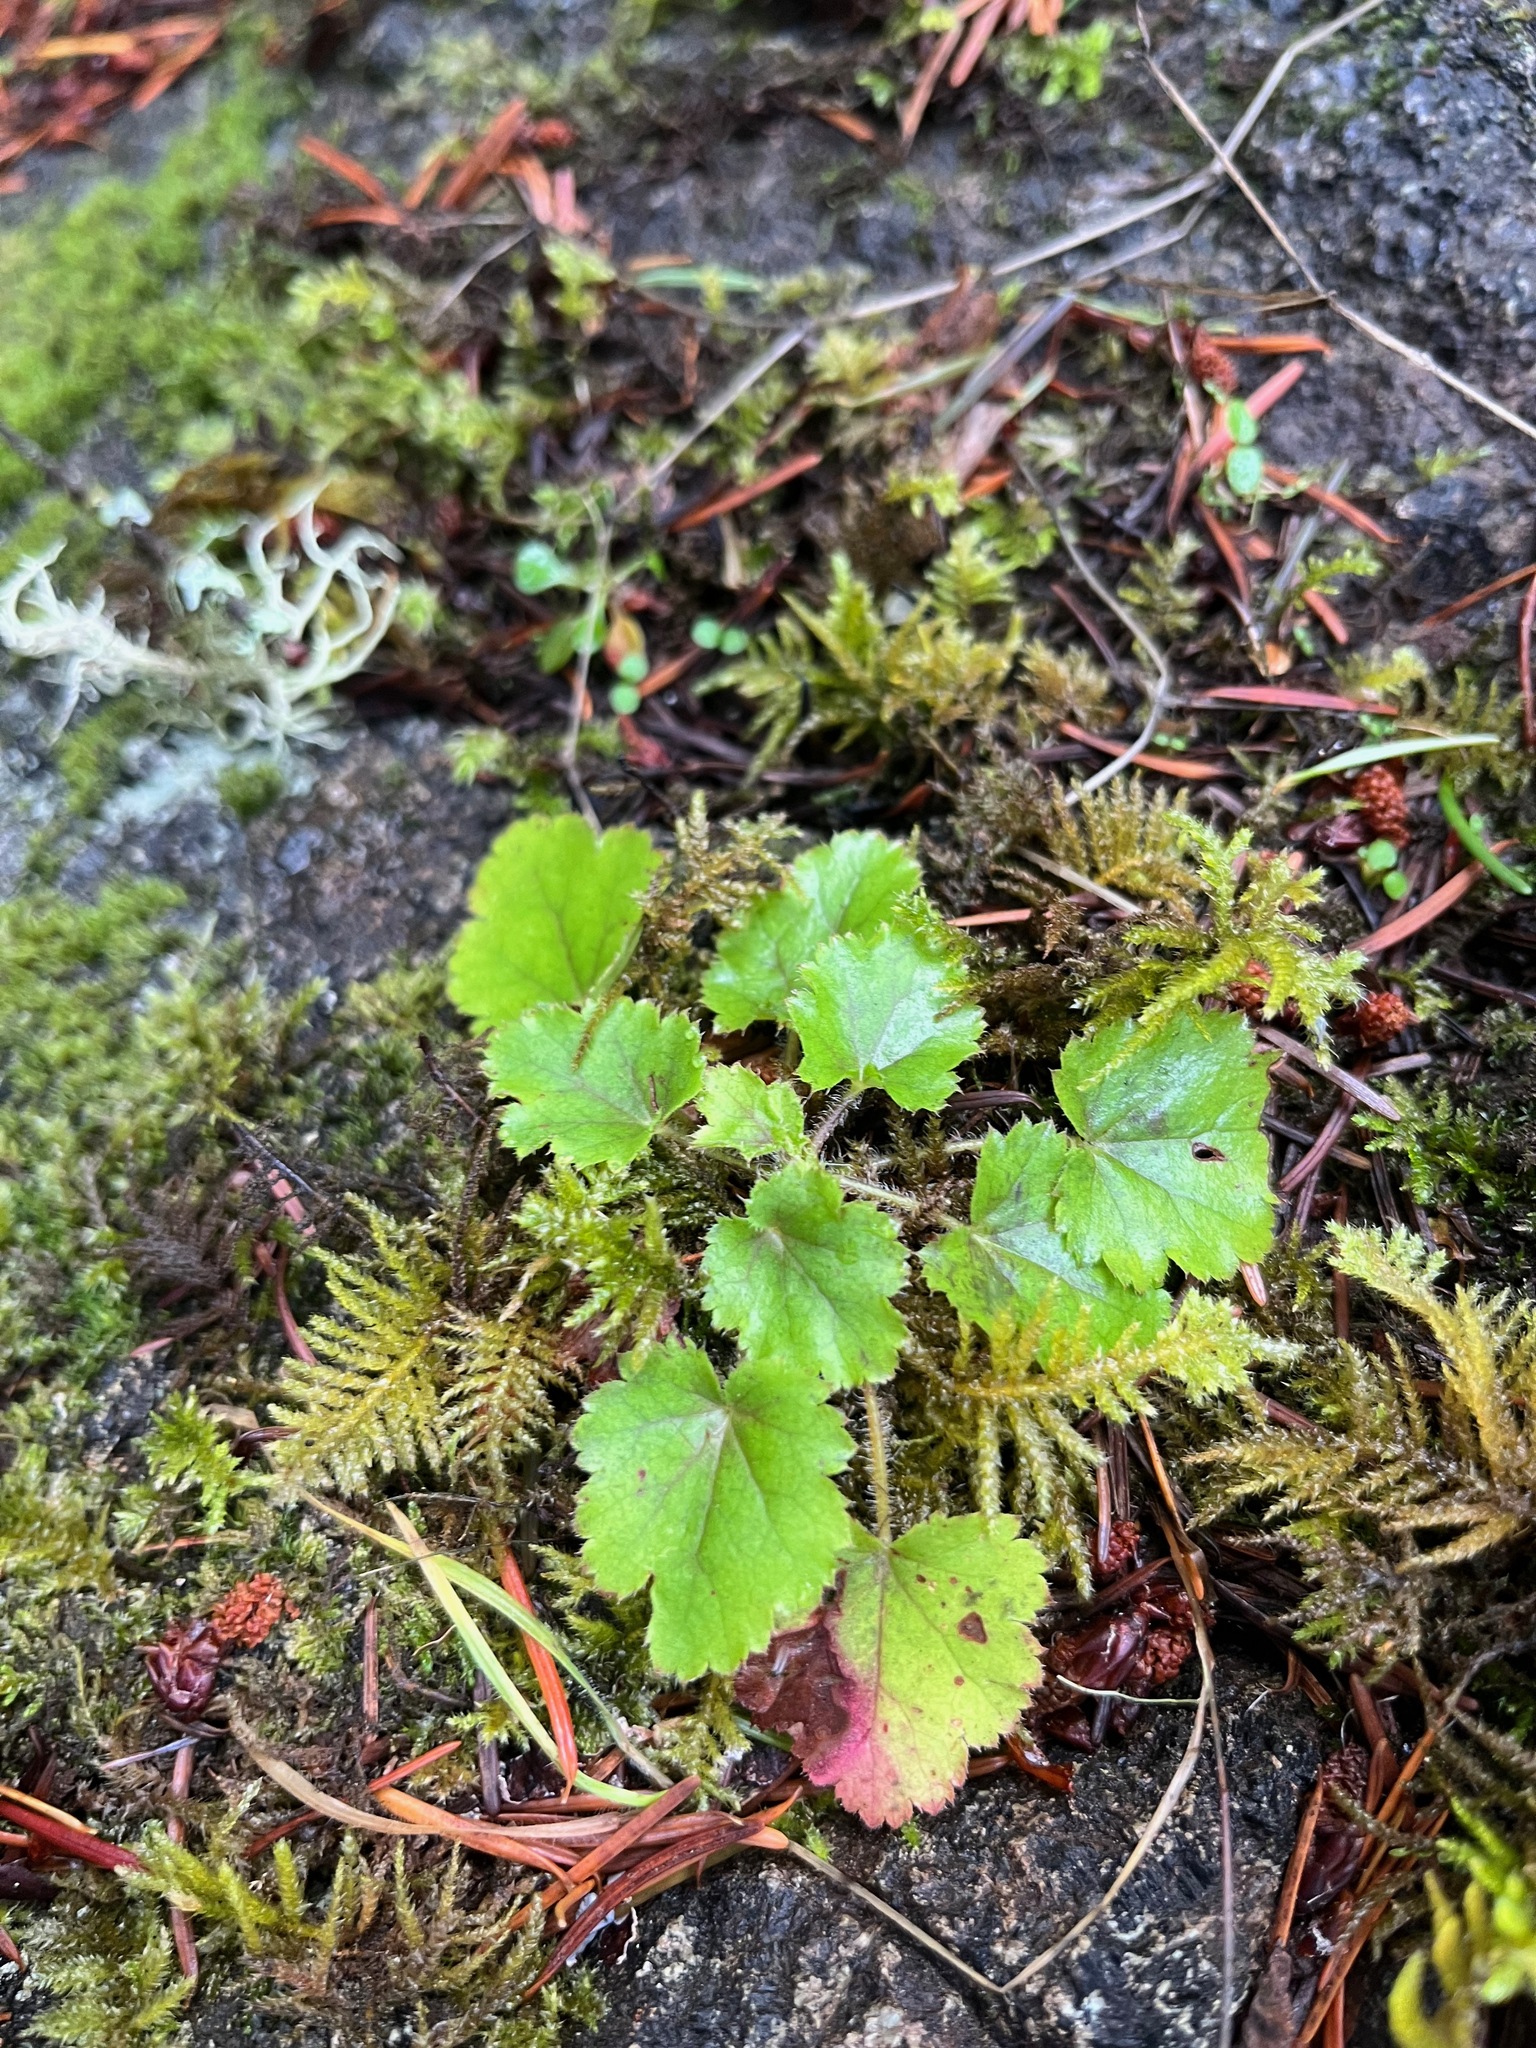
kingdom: Plantae
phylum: Tracheophyta
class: Magnoliopsida
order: Saxifragales
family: Saxifragaceae
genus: Heuchera
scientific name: Heuchera micrantha
